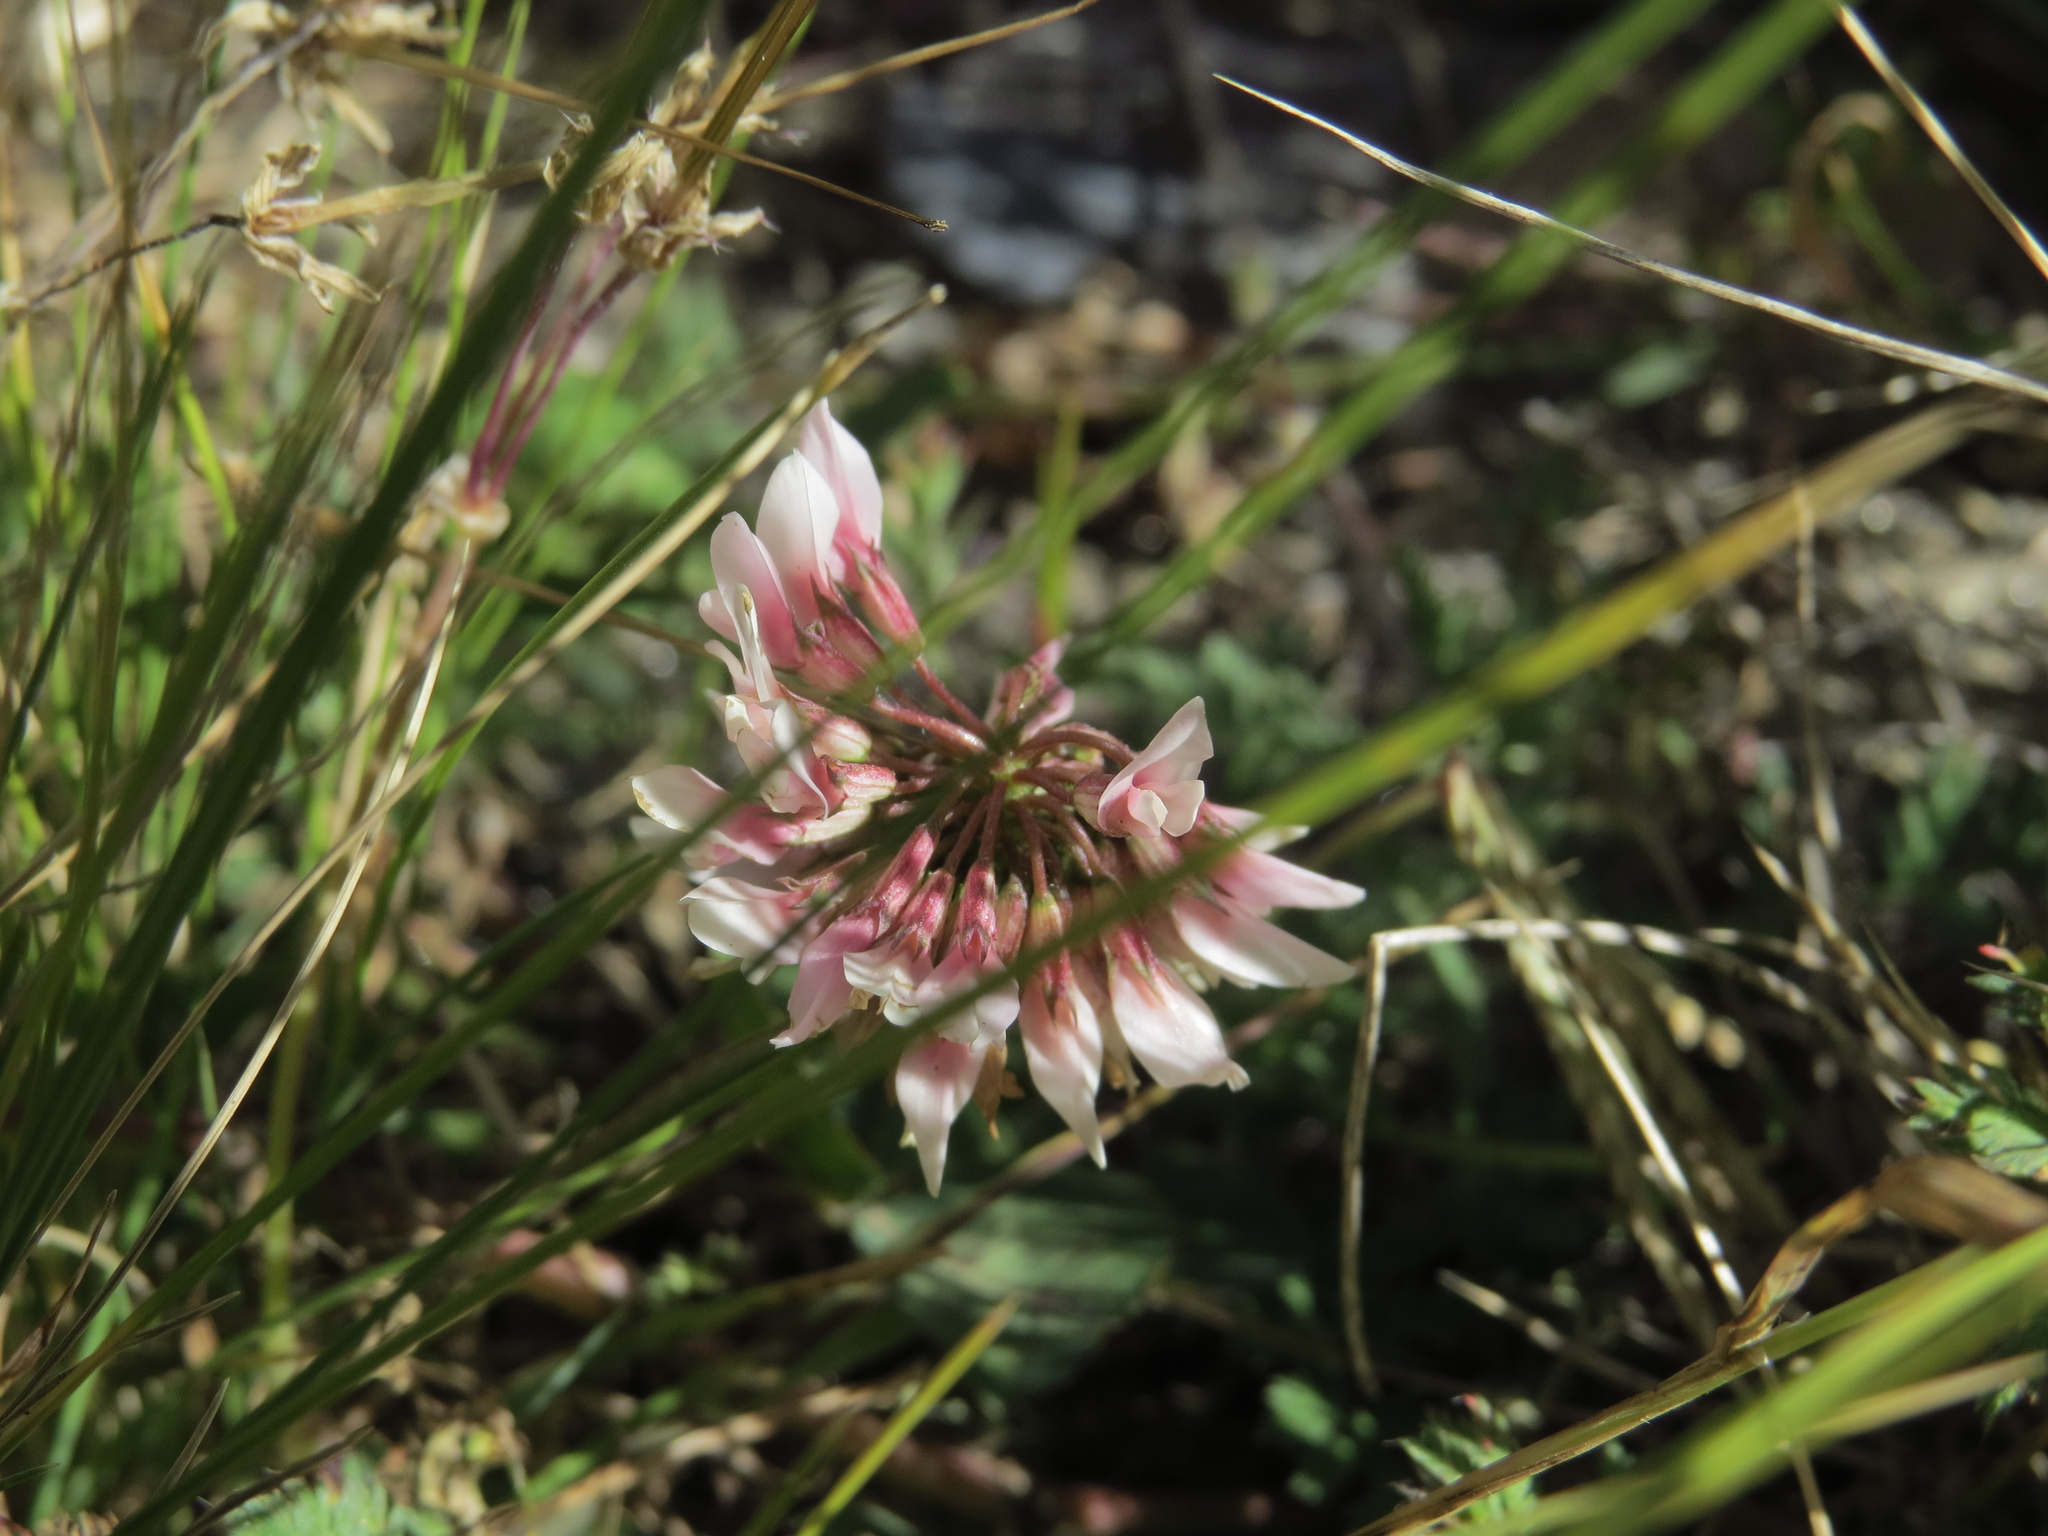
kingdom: Plantae
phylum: Tracheophyta
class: Magnoliopsida
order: Fabales
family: Fabaceae
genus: Trifolium
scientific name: Trifolium repens
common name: White clover
